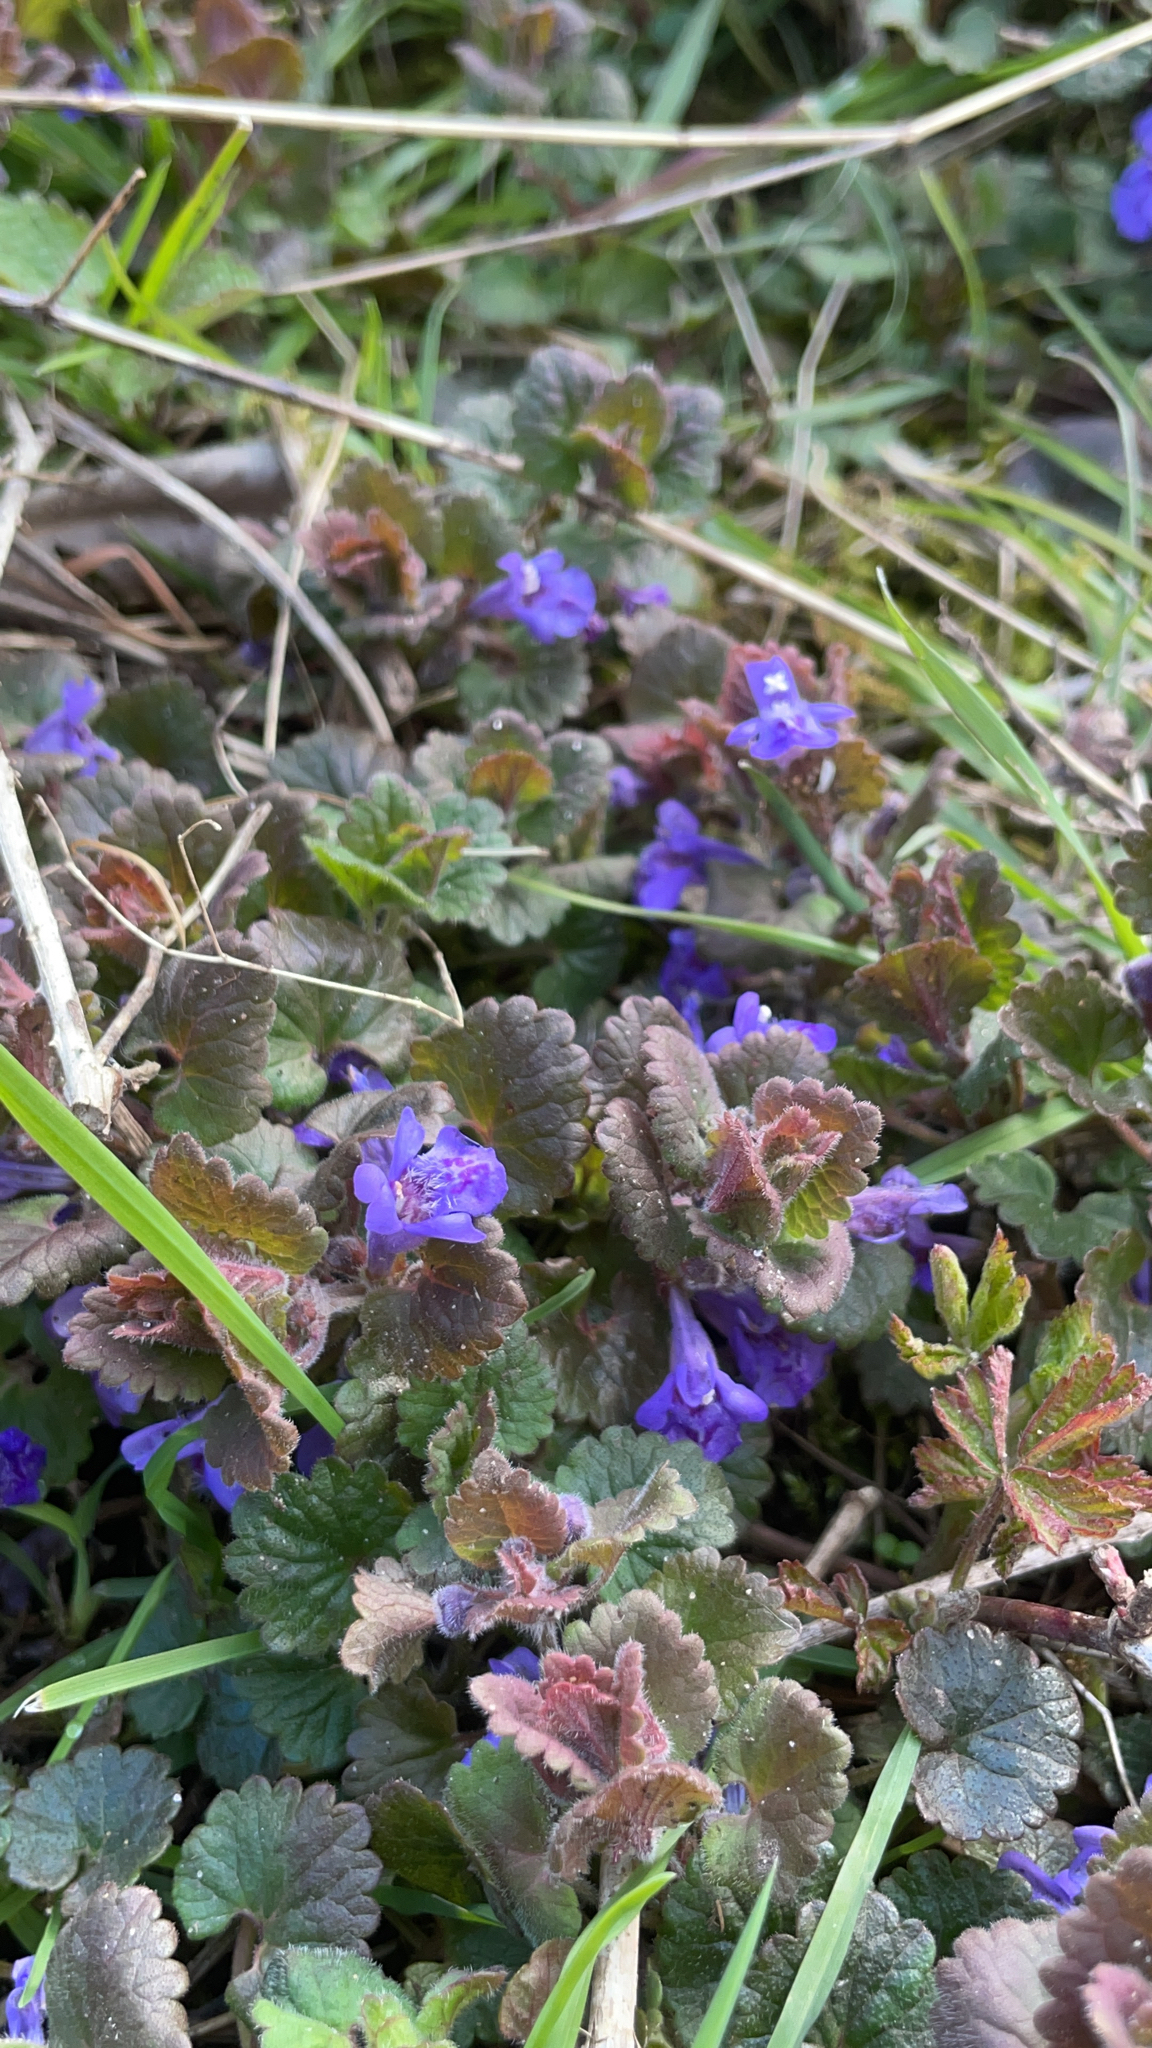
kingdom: Plantae
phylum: Tracheophyta
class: Magnoliopsida
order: Lamiales
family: Lamiaceae
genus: Glechoma
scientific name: Glechoma hederacea
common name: Ground ivy
